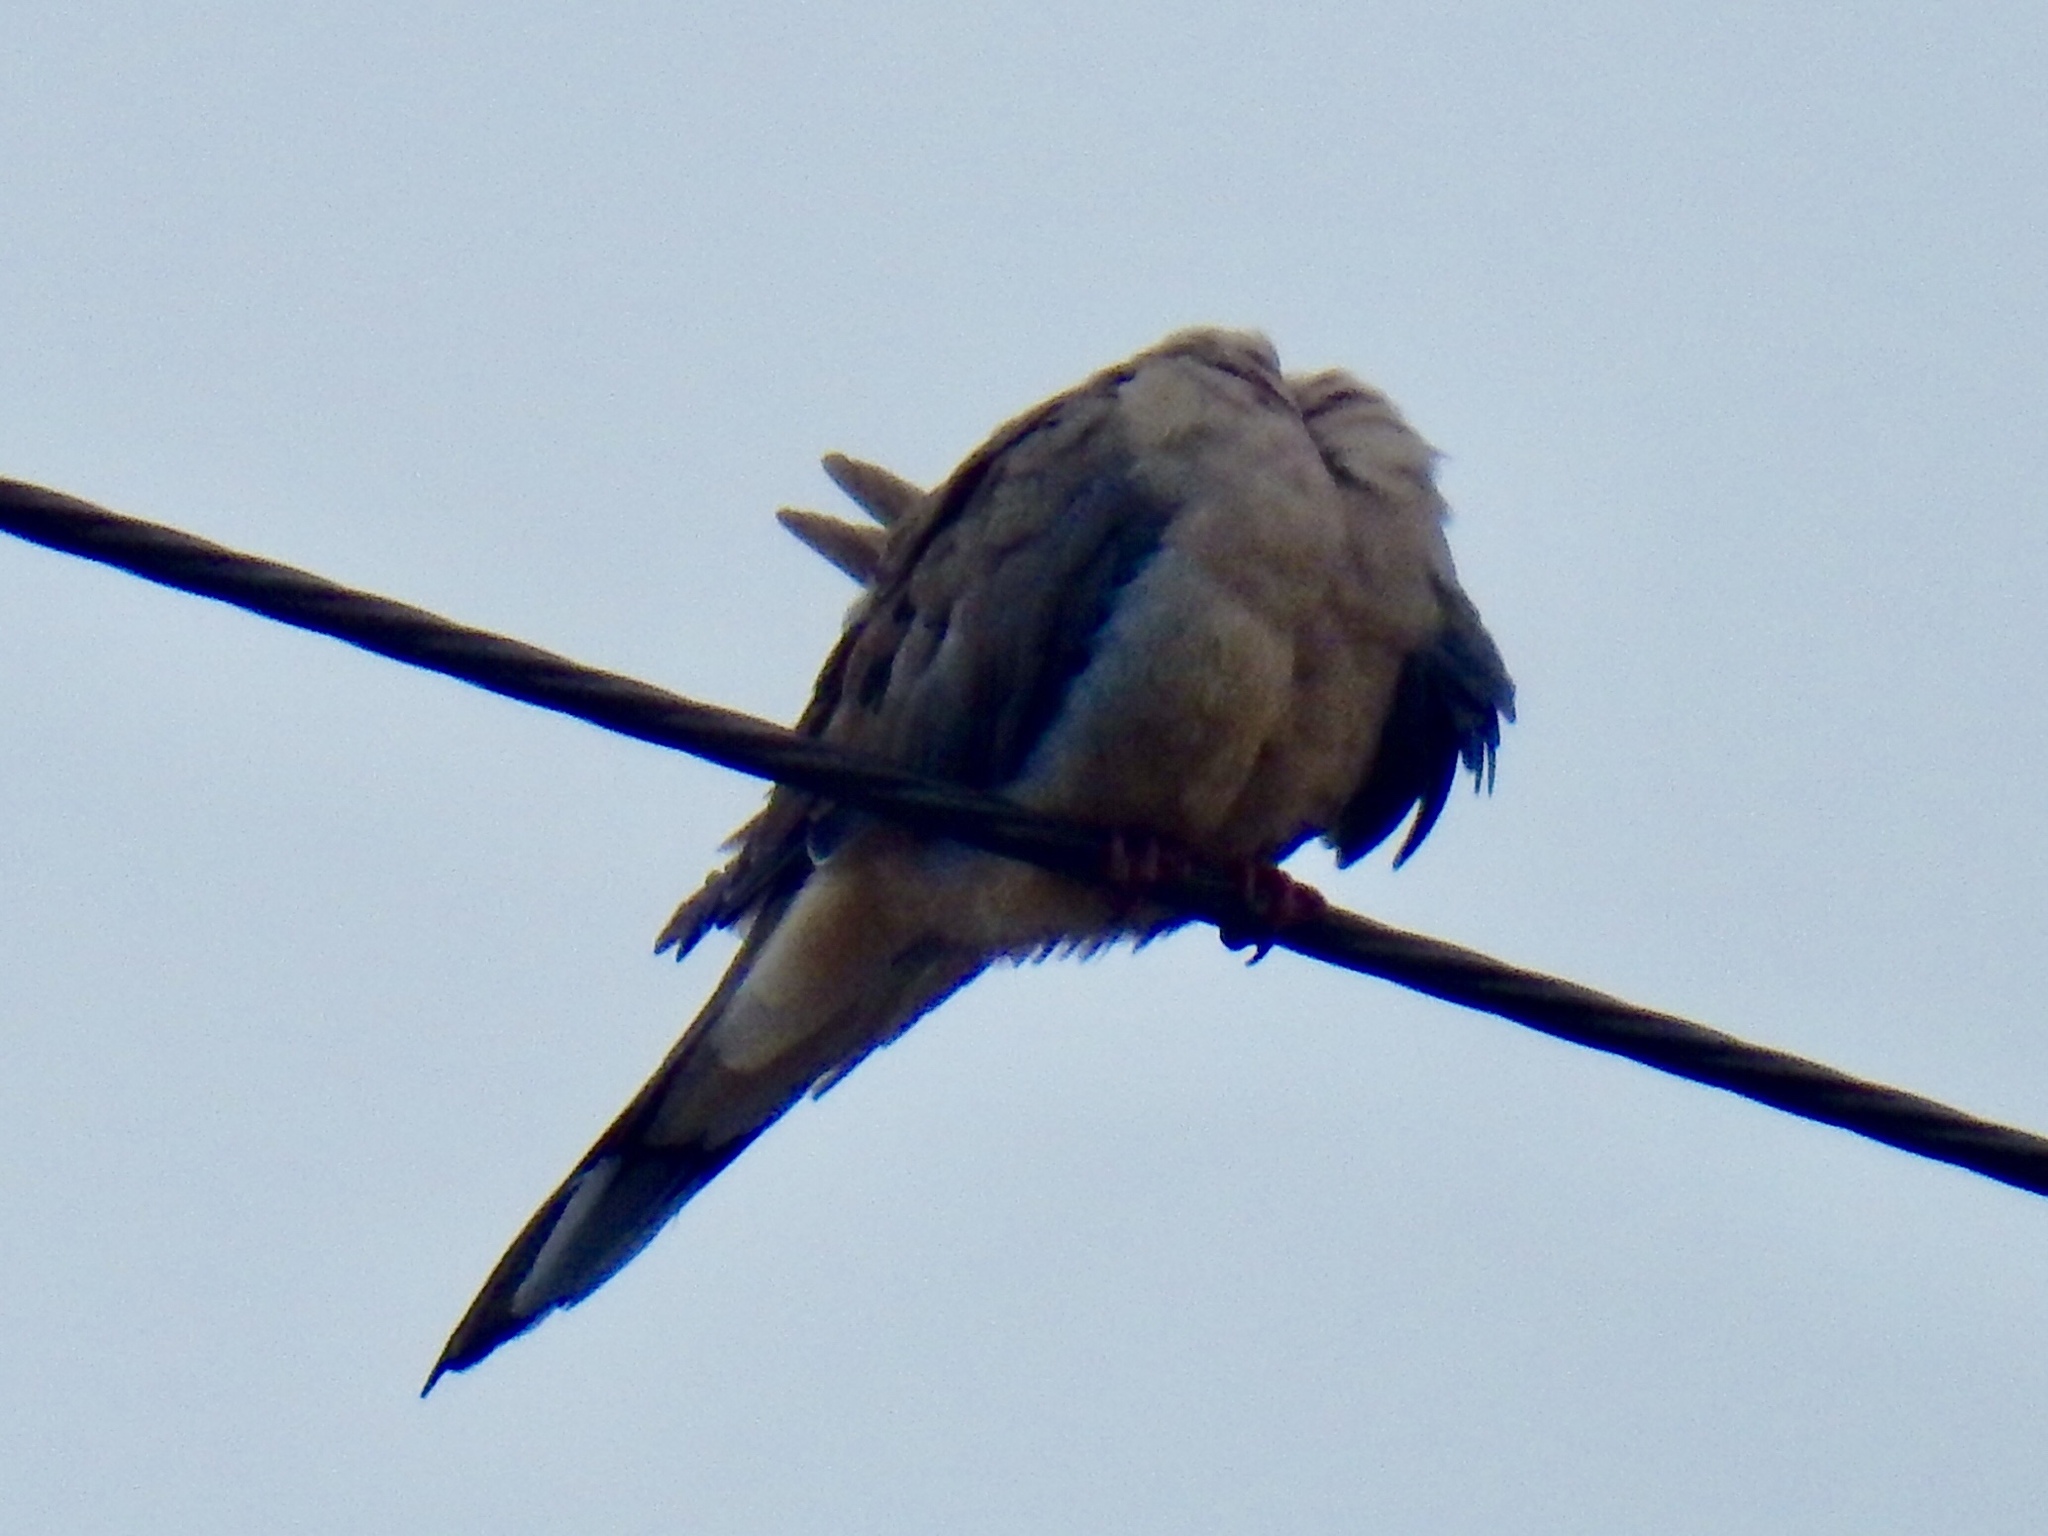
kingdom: Animalia
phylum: Chordata
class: Aves
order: Columbiformes
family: Columbidae
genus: Zenaida
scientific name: Zenaida macroura
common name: Mourning dove
